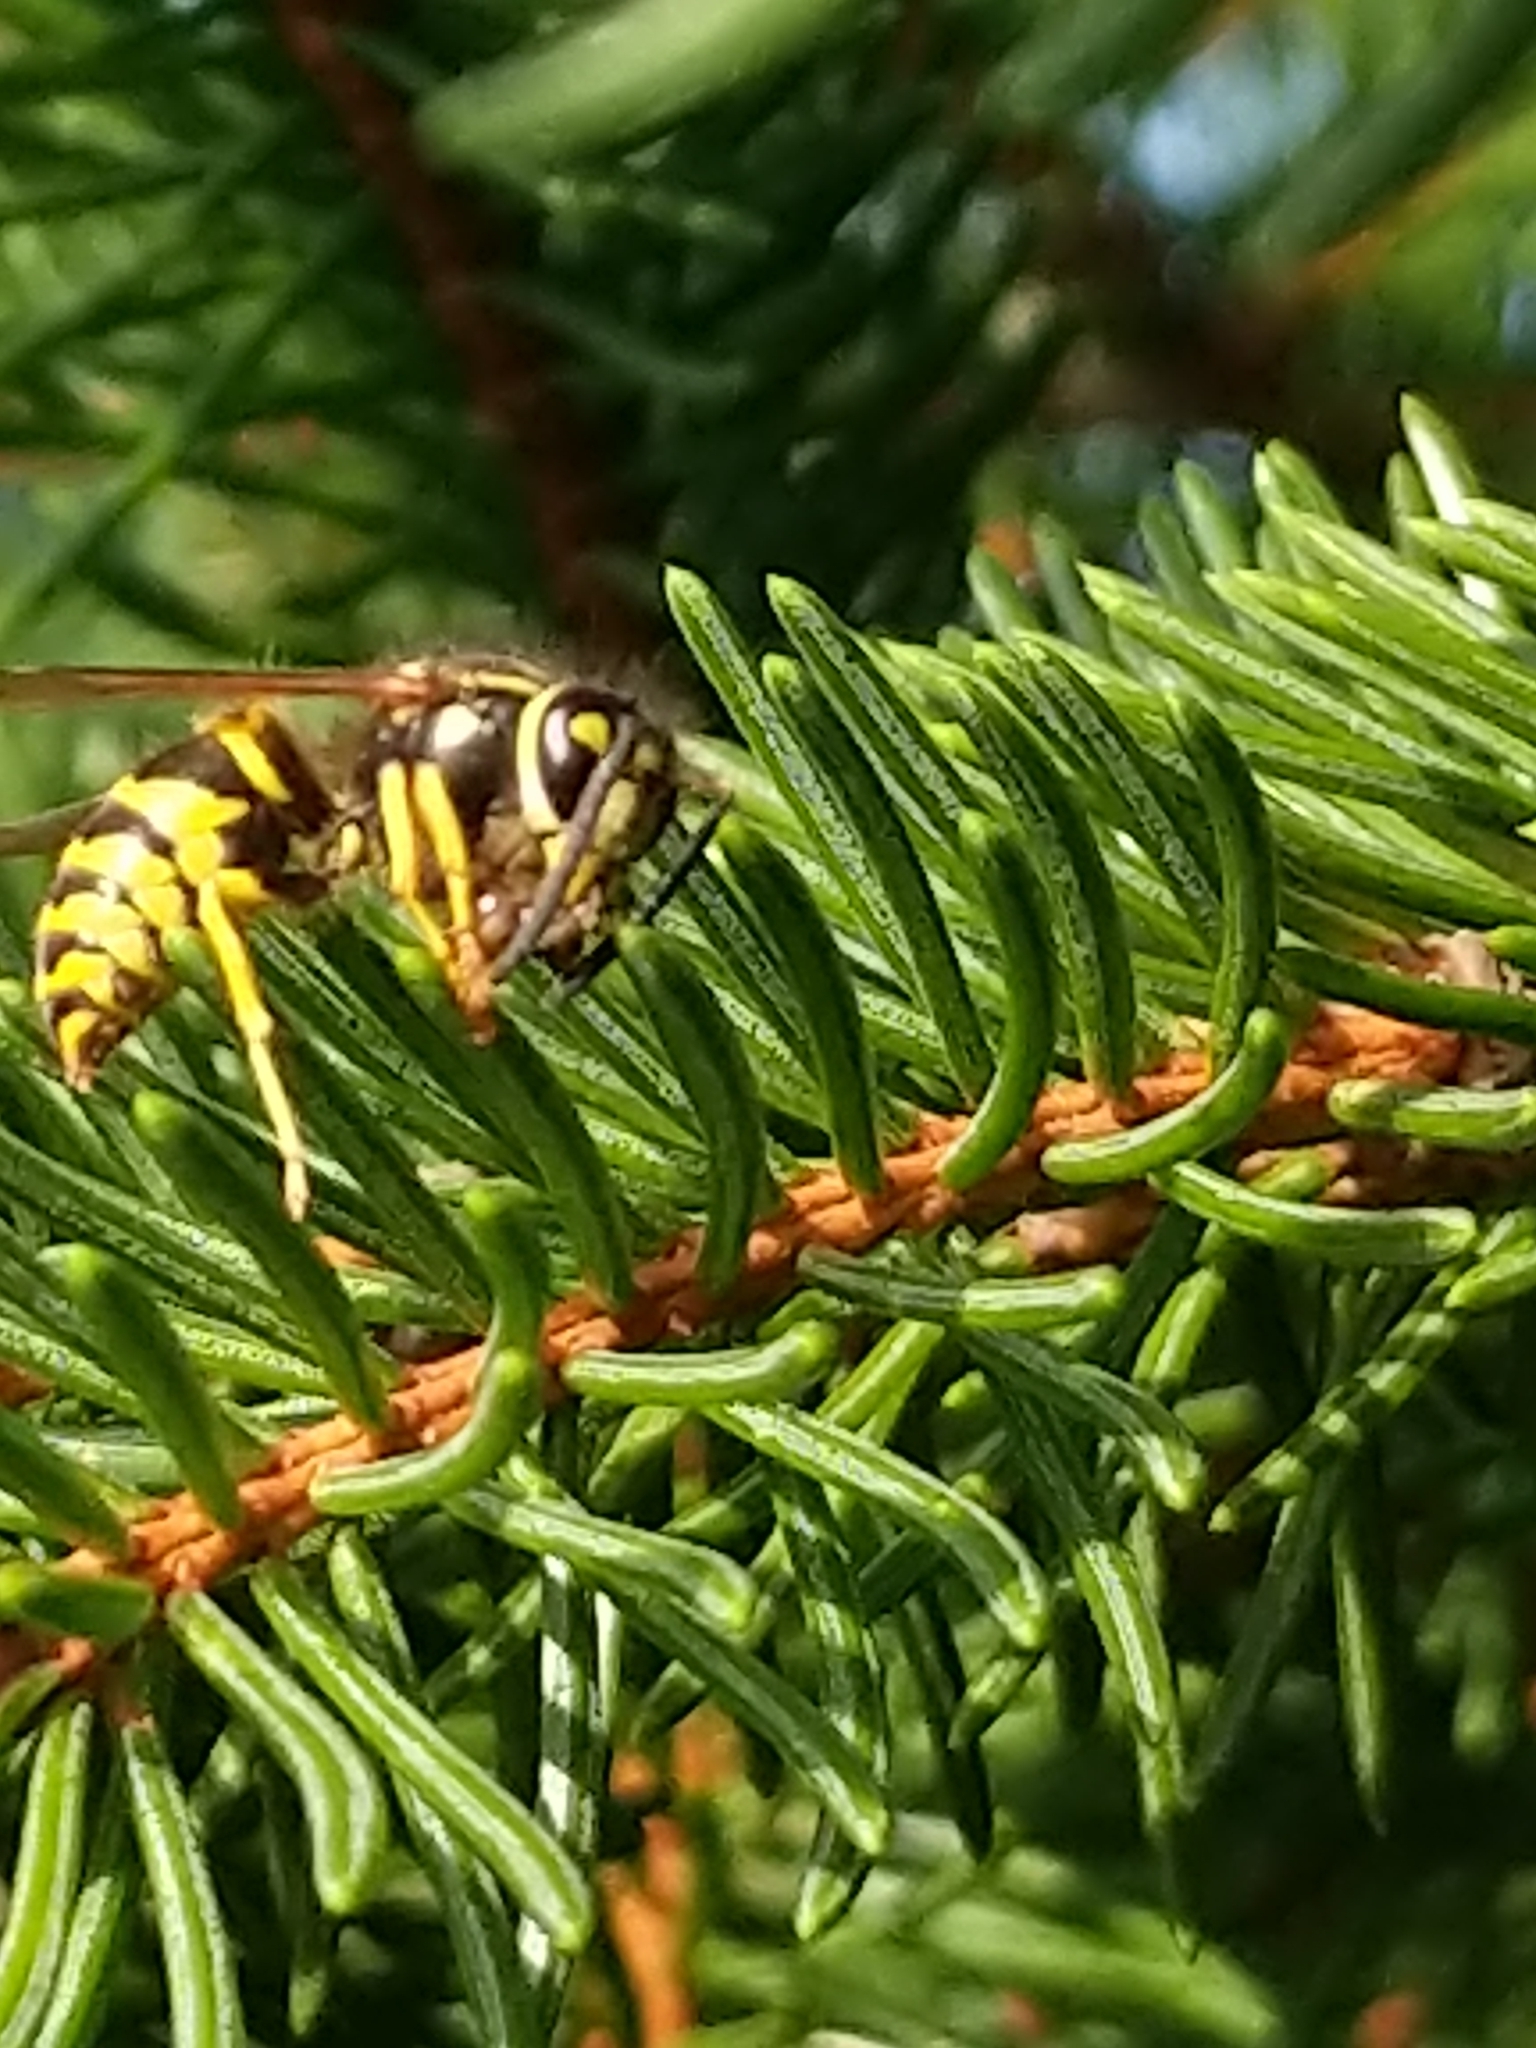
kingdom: Animalia
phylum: Arthropoda
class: Insecta
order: Hymenoptera
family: Vespidae
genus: Vespula
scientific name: Vespula maculifrons
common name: Eastern yellowjacket
